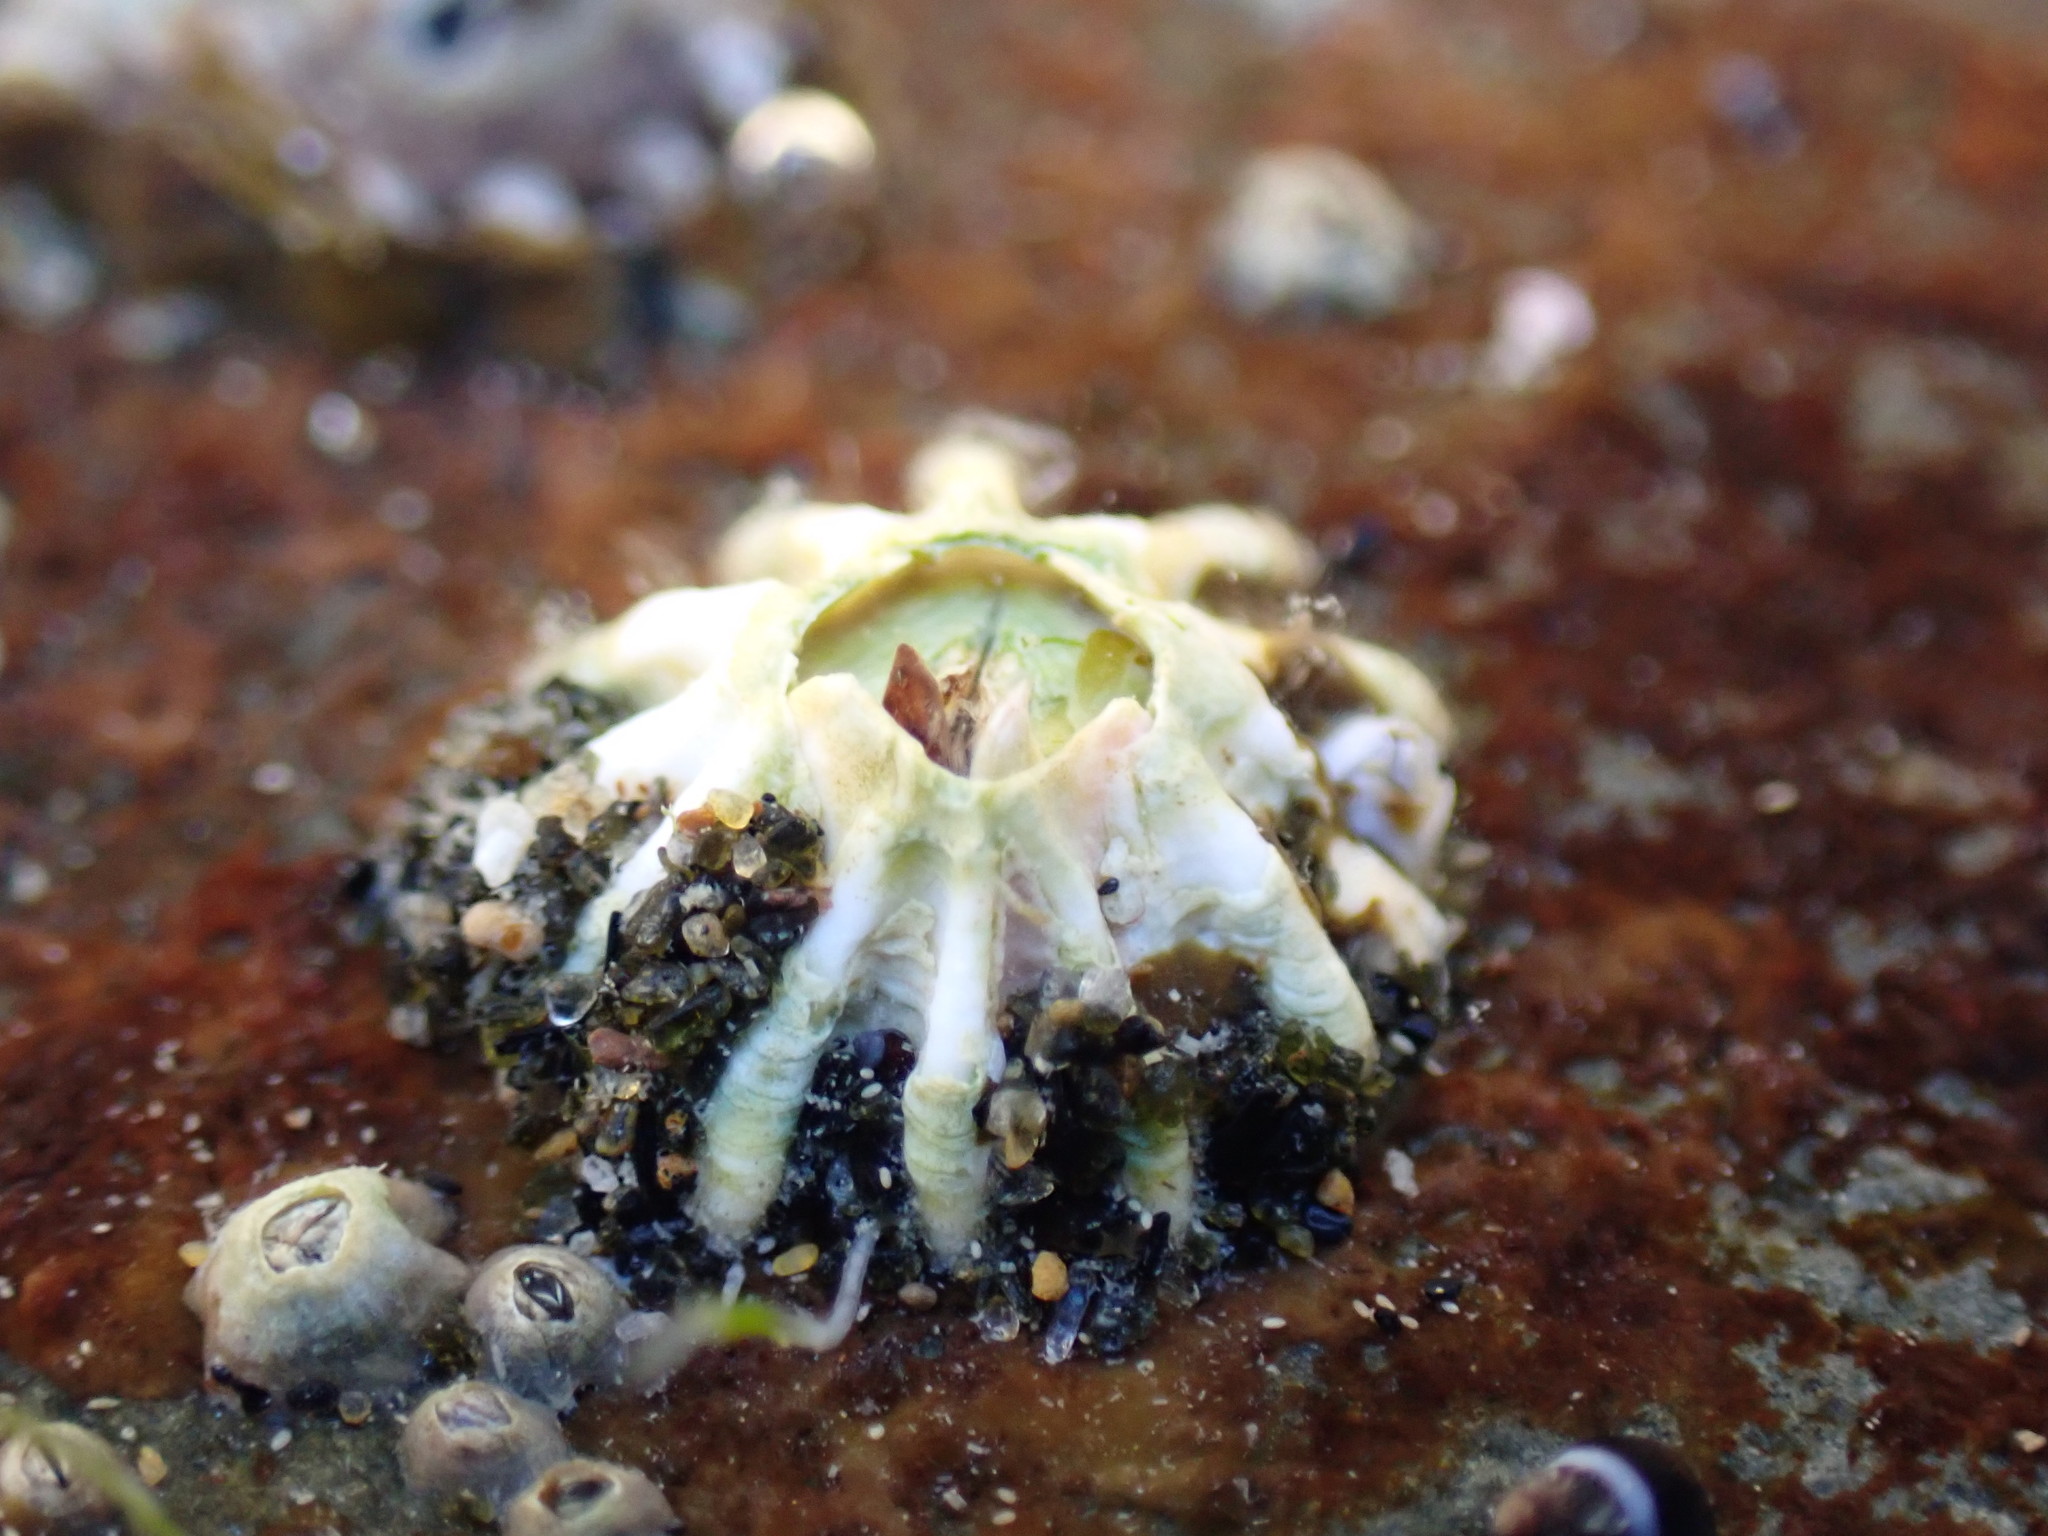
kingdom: Animalia
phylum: Arthropoda
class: Maxillopoda
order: Sessilia
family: Tetraclitidae
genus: Epopella
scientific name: Epopella plicata
